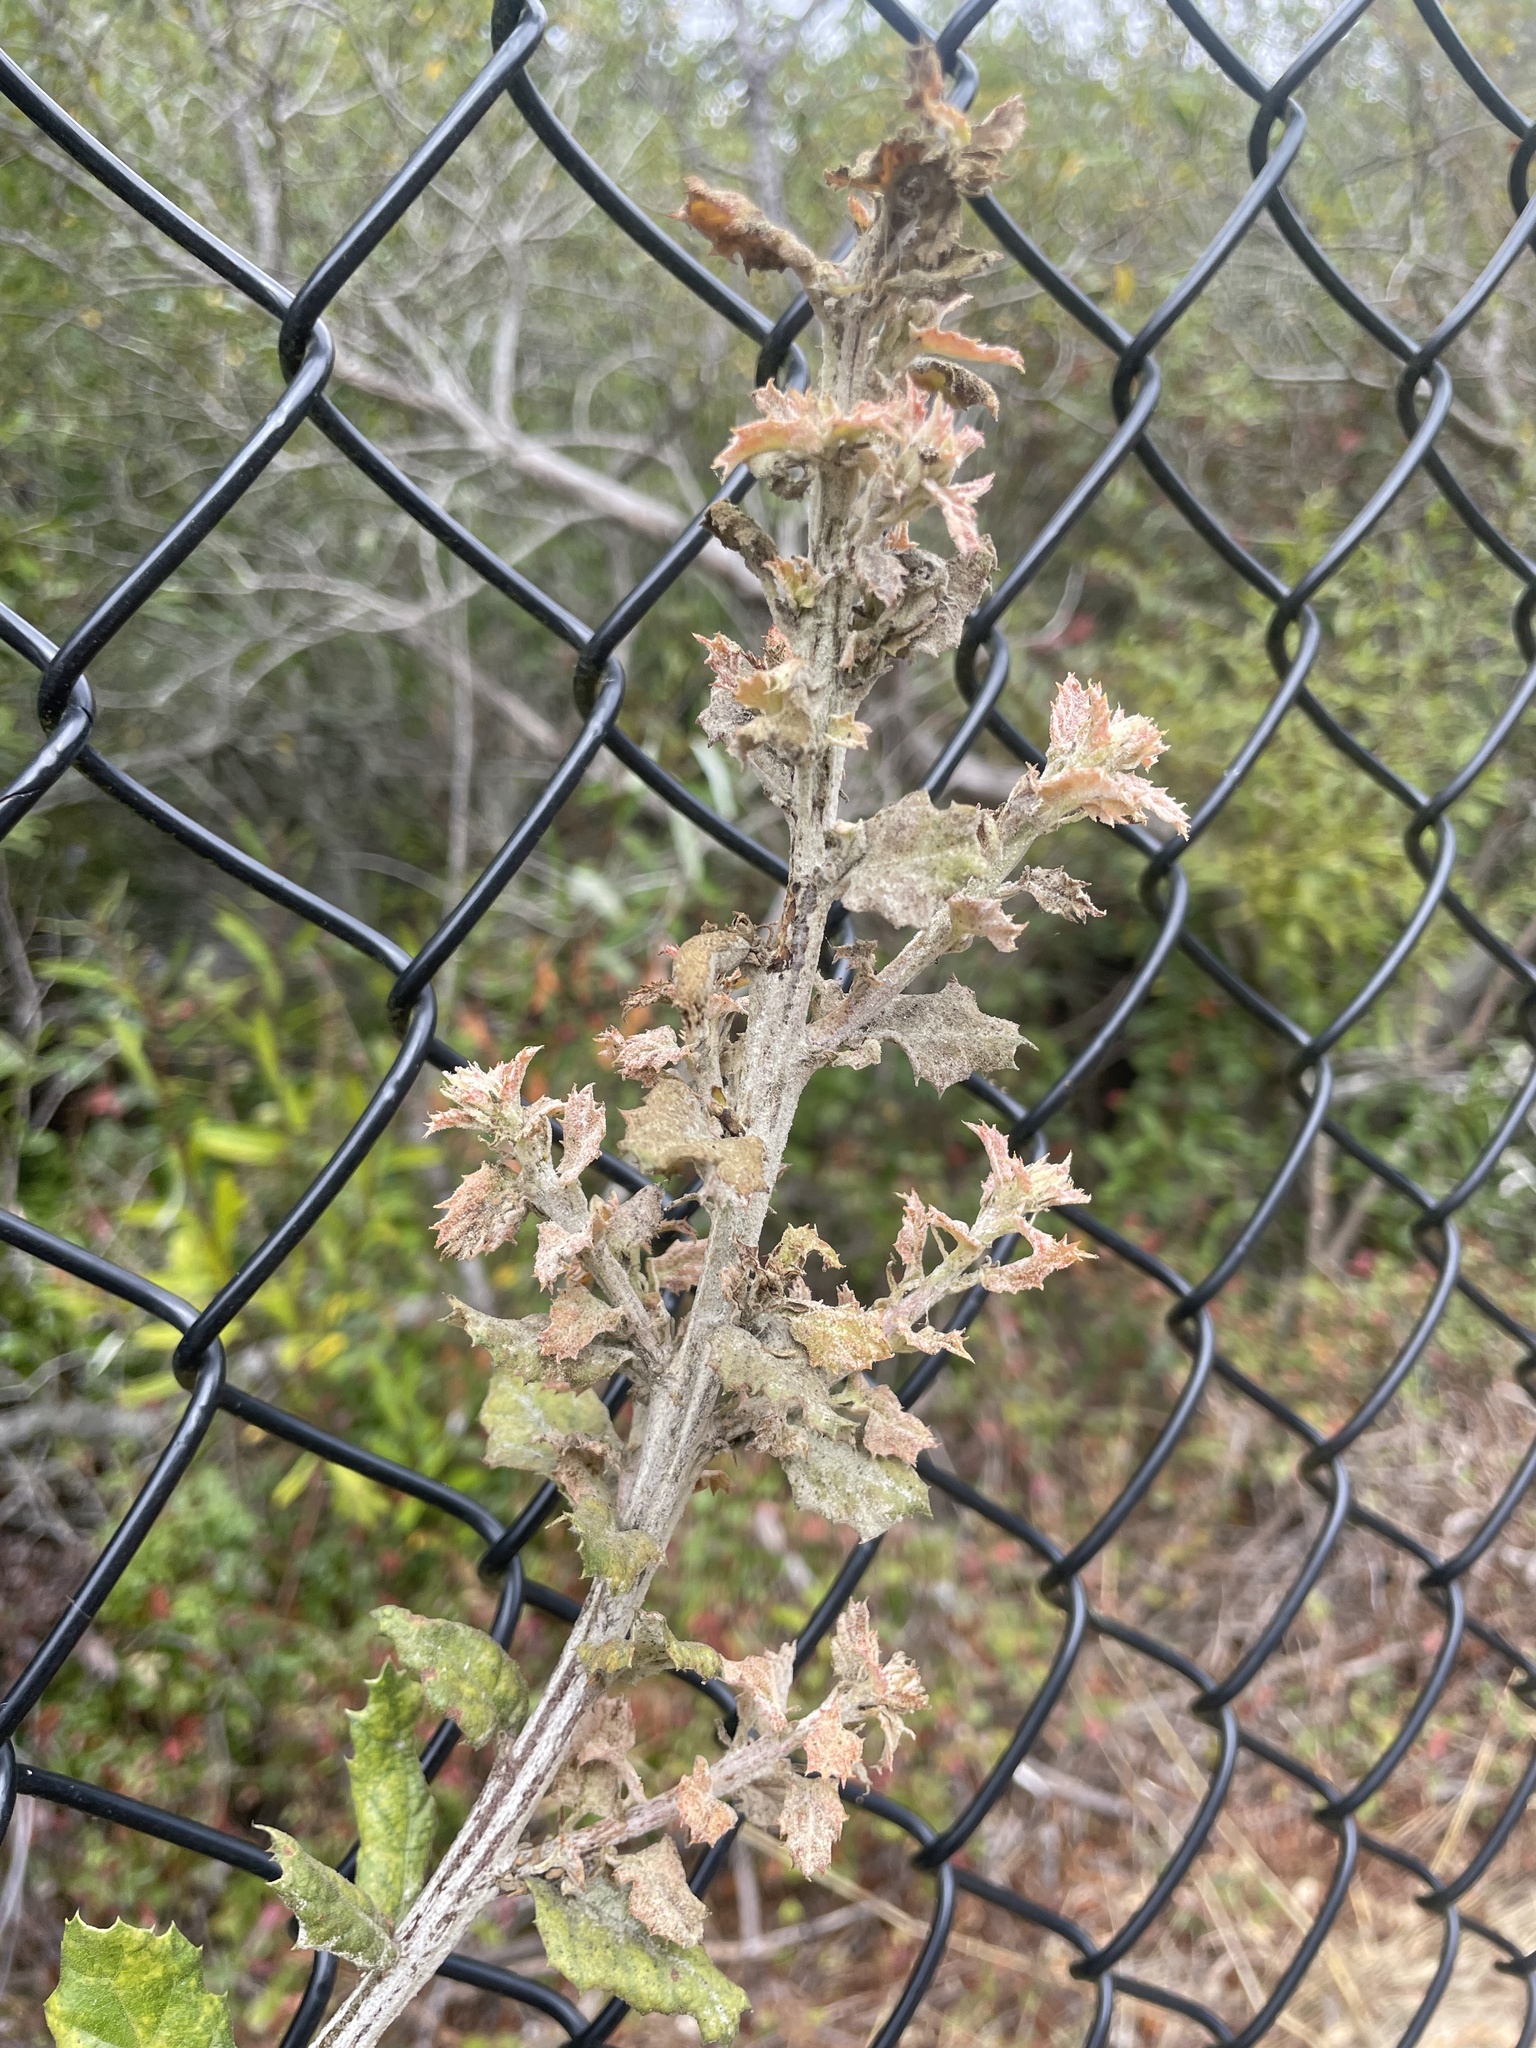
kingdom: Fungi
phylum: Ascomycota
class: Leotiomycetes
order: Helotiales
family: Erysiphaceae
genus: Cystotheca
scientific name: Cystotheca lanestris
